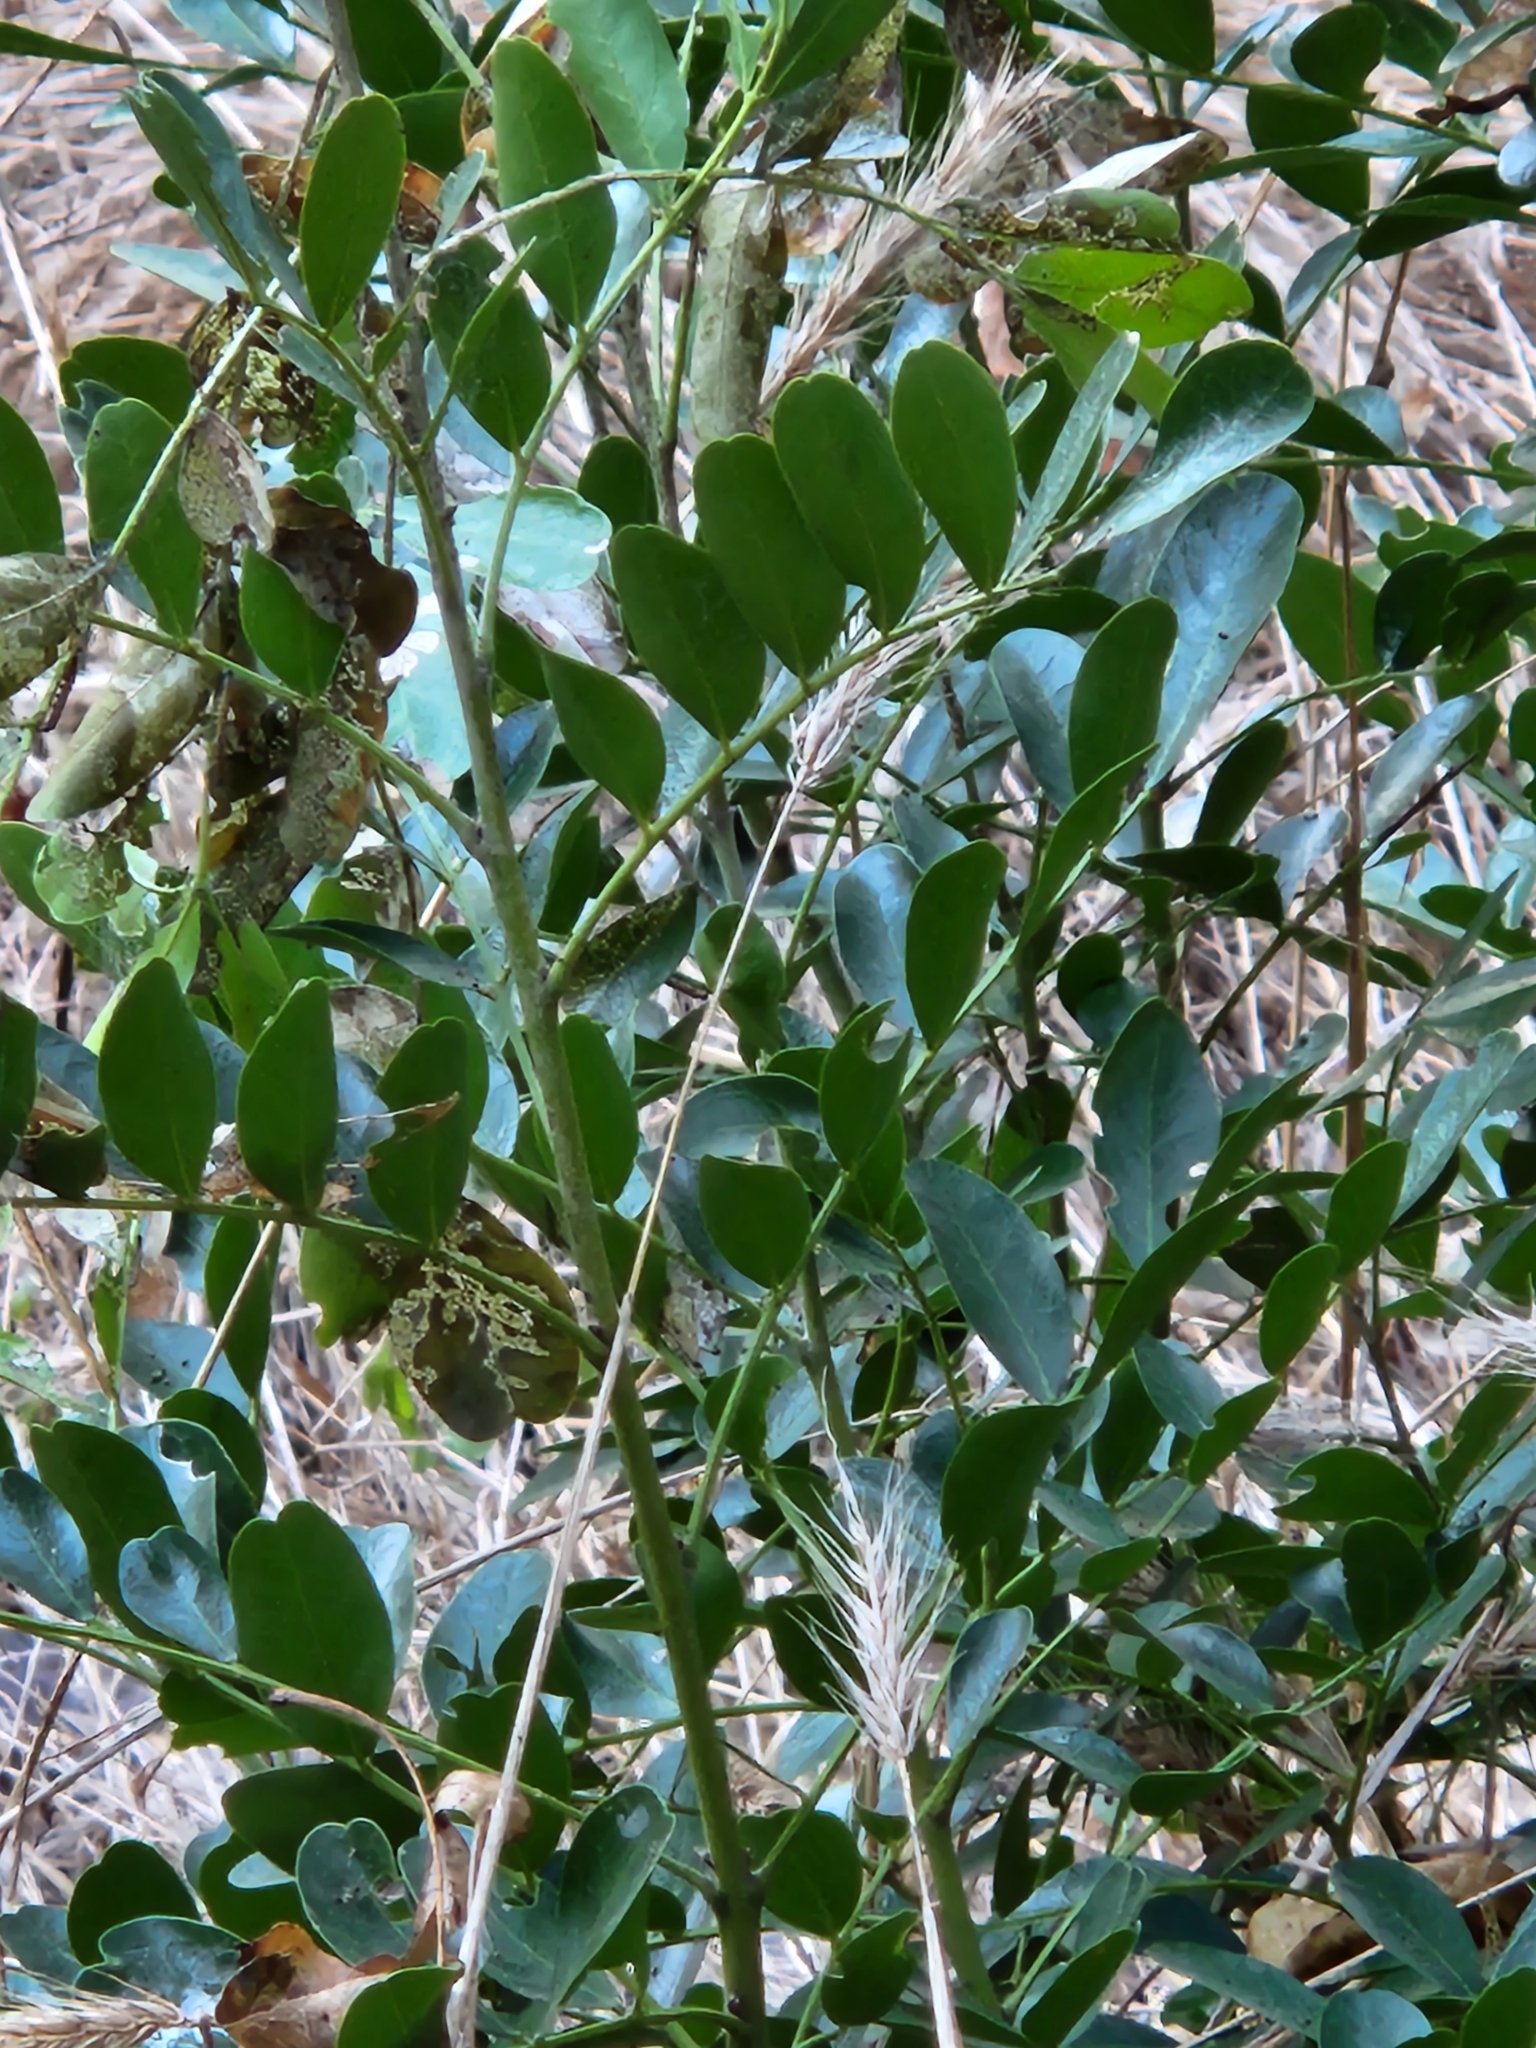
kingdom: Plantae
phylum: Tracheophyta
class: Magnoliopsida
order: Fabales
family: Fabaceae
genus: Dermatophyllum
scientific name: Dermatophyllum secundiflorum
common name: Texas-mountain-laurel
